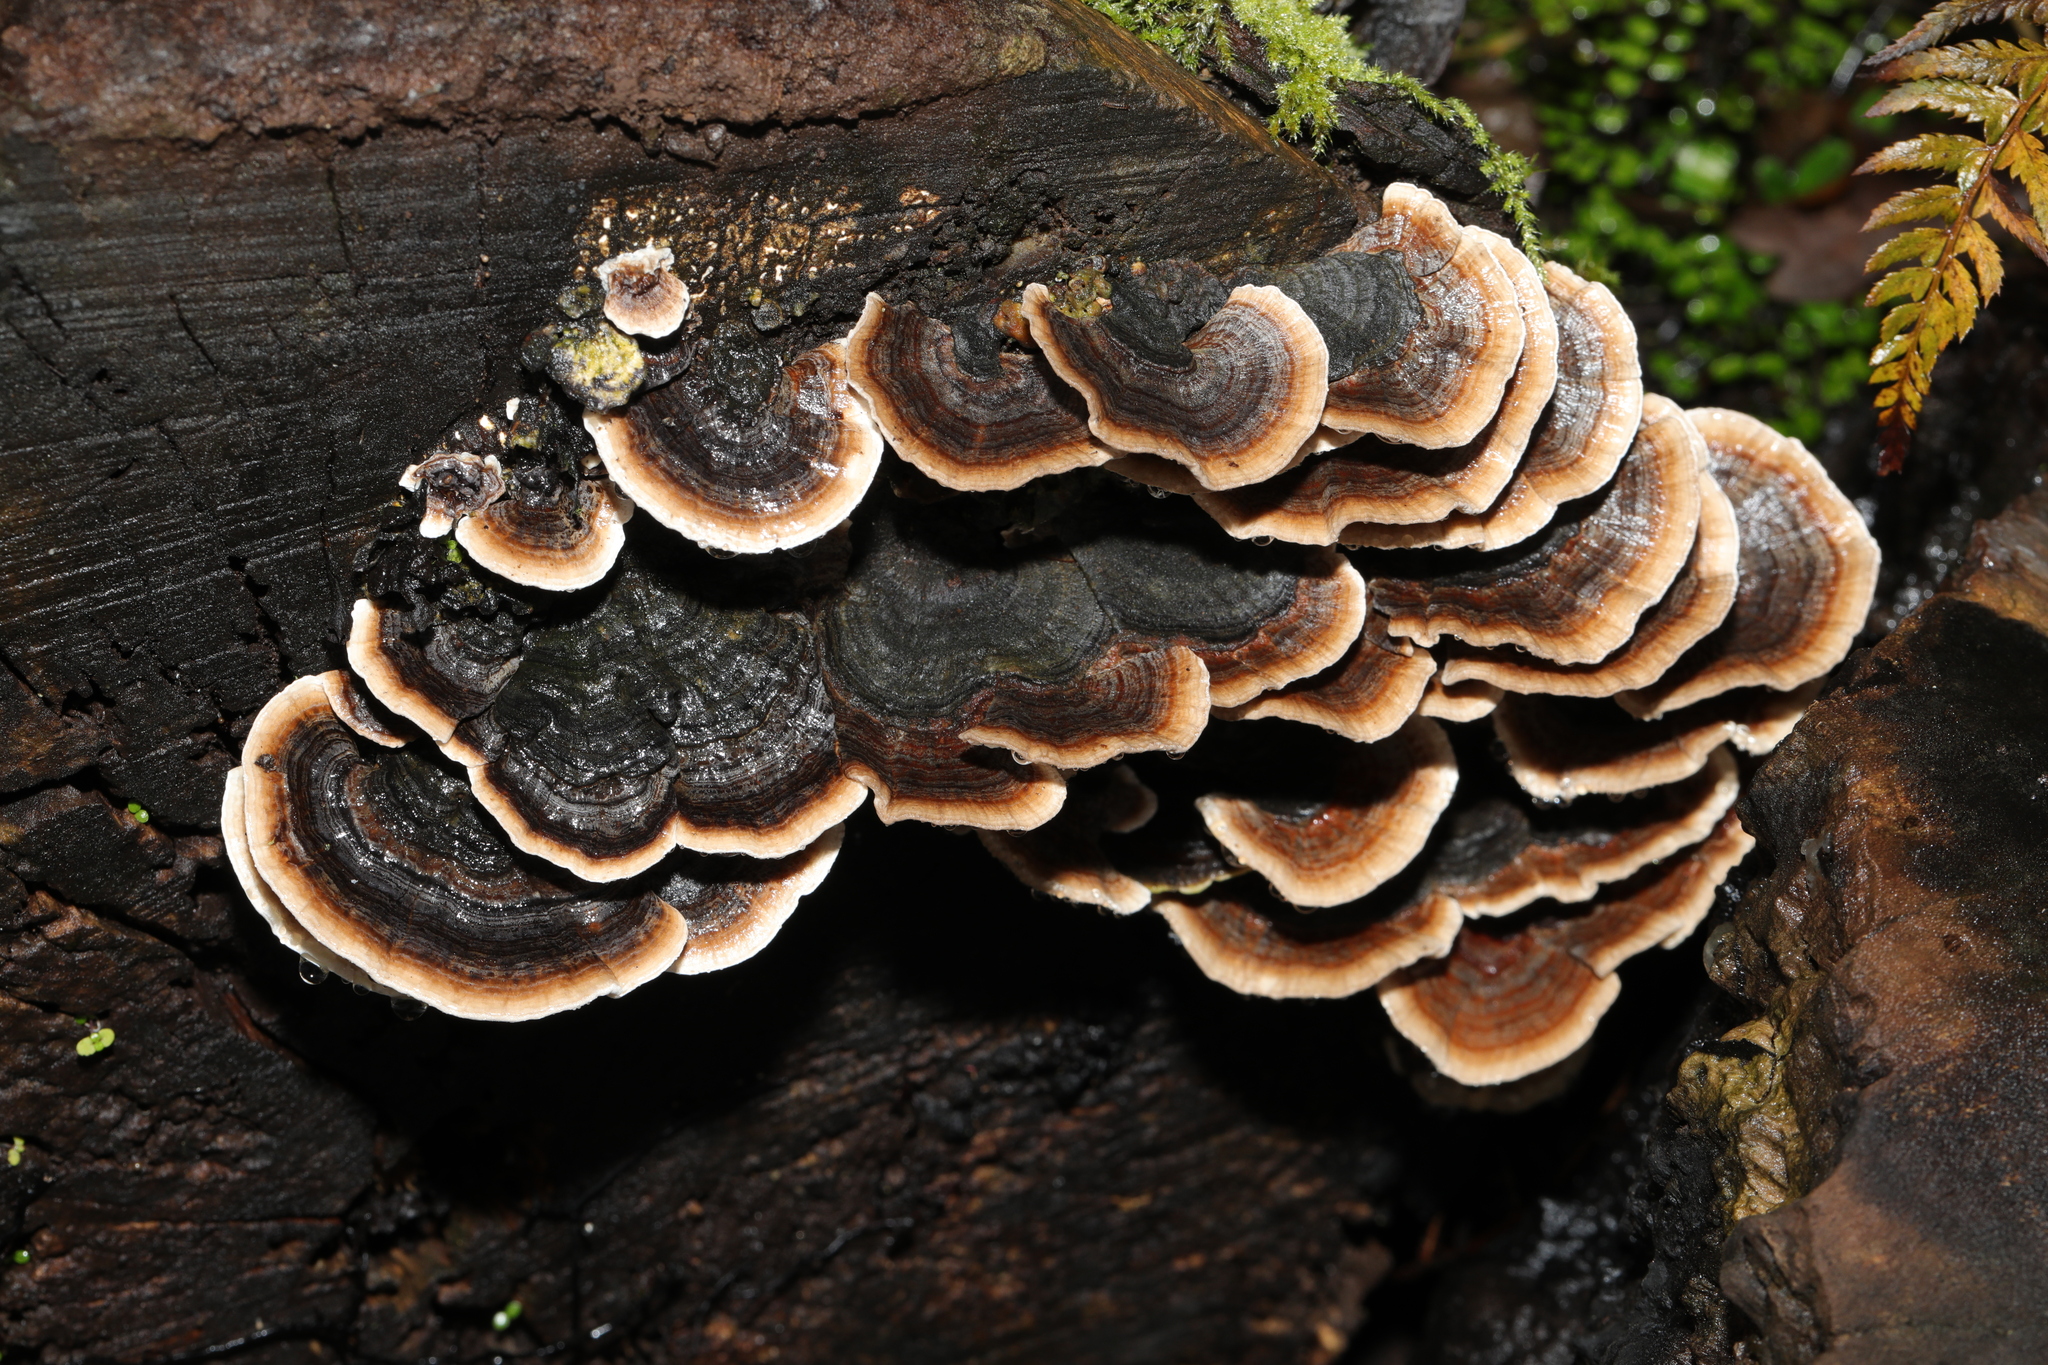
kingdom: Fungi
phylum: Basidiomycota
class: Agaricomycetes
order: Polyporales
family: Polyporaceae
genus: Trametes
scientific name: Trametes versicolor
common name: Turkeytail
